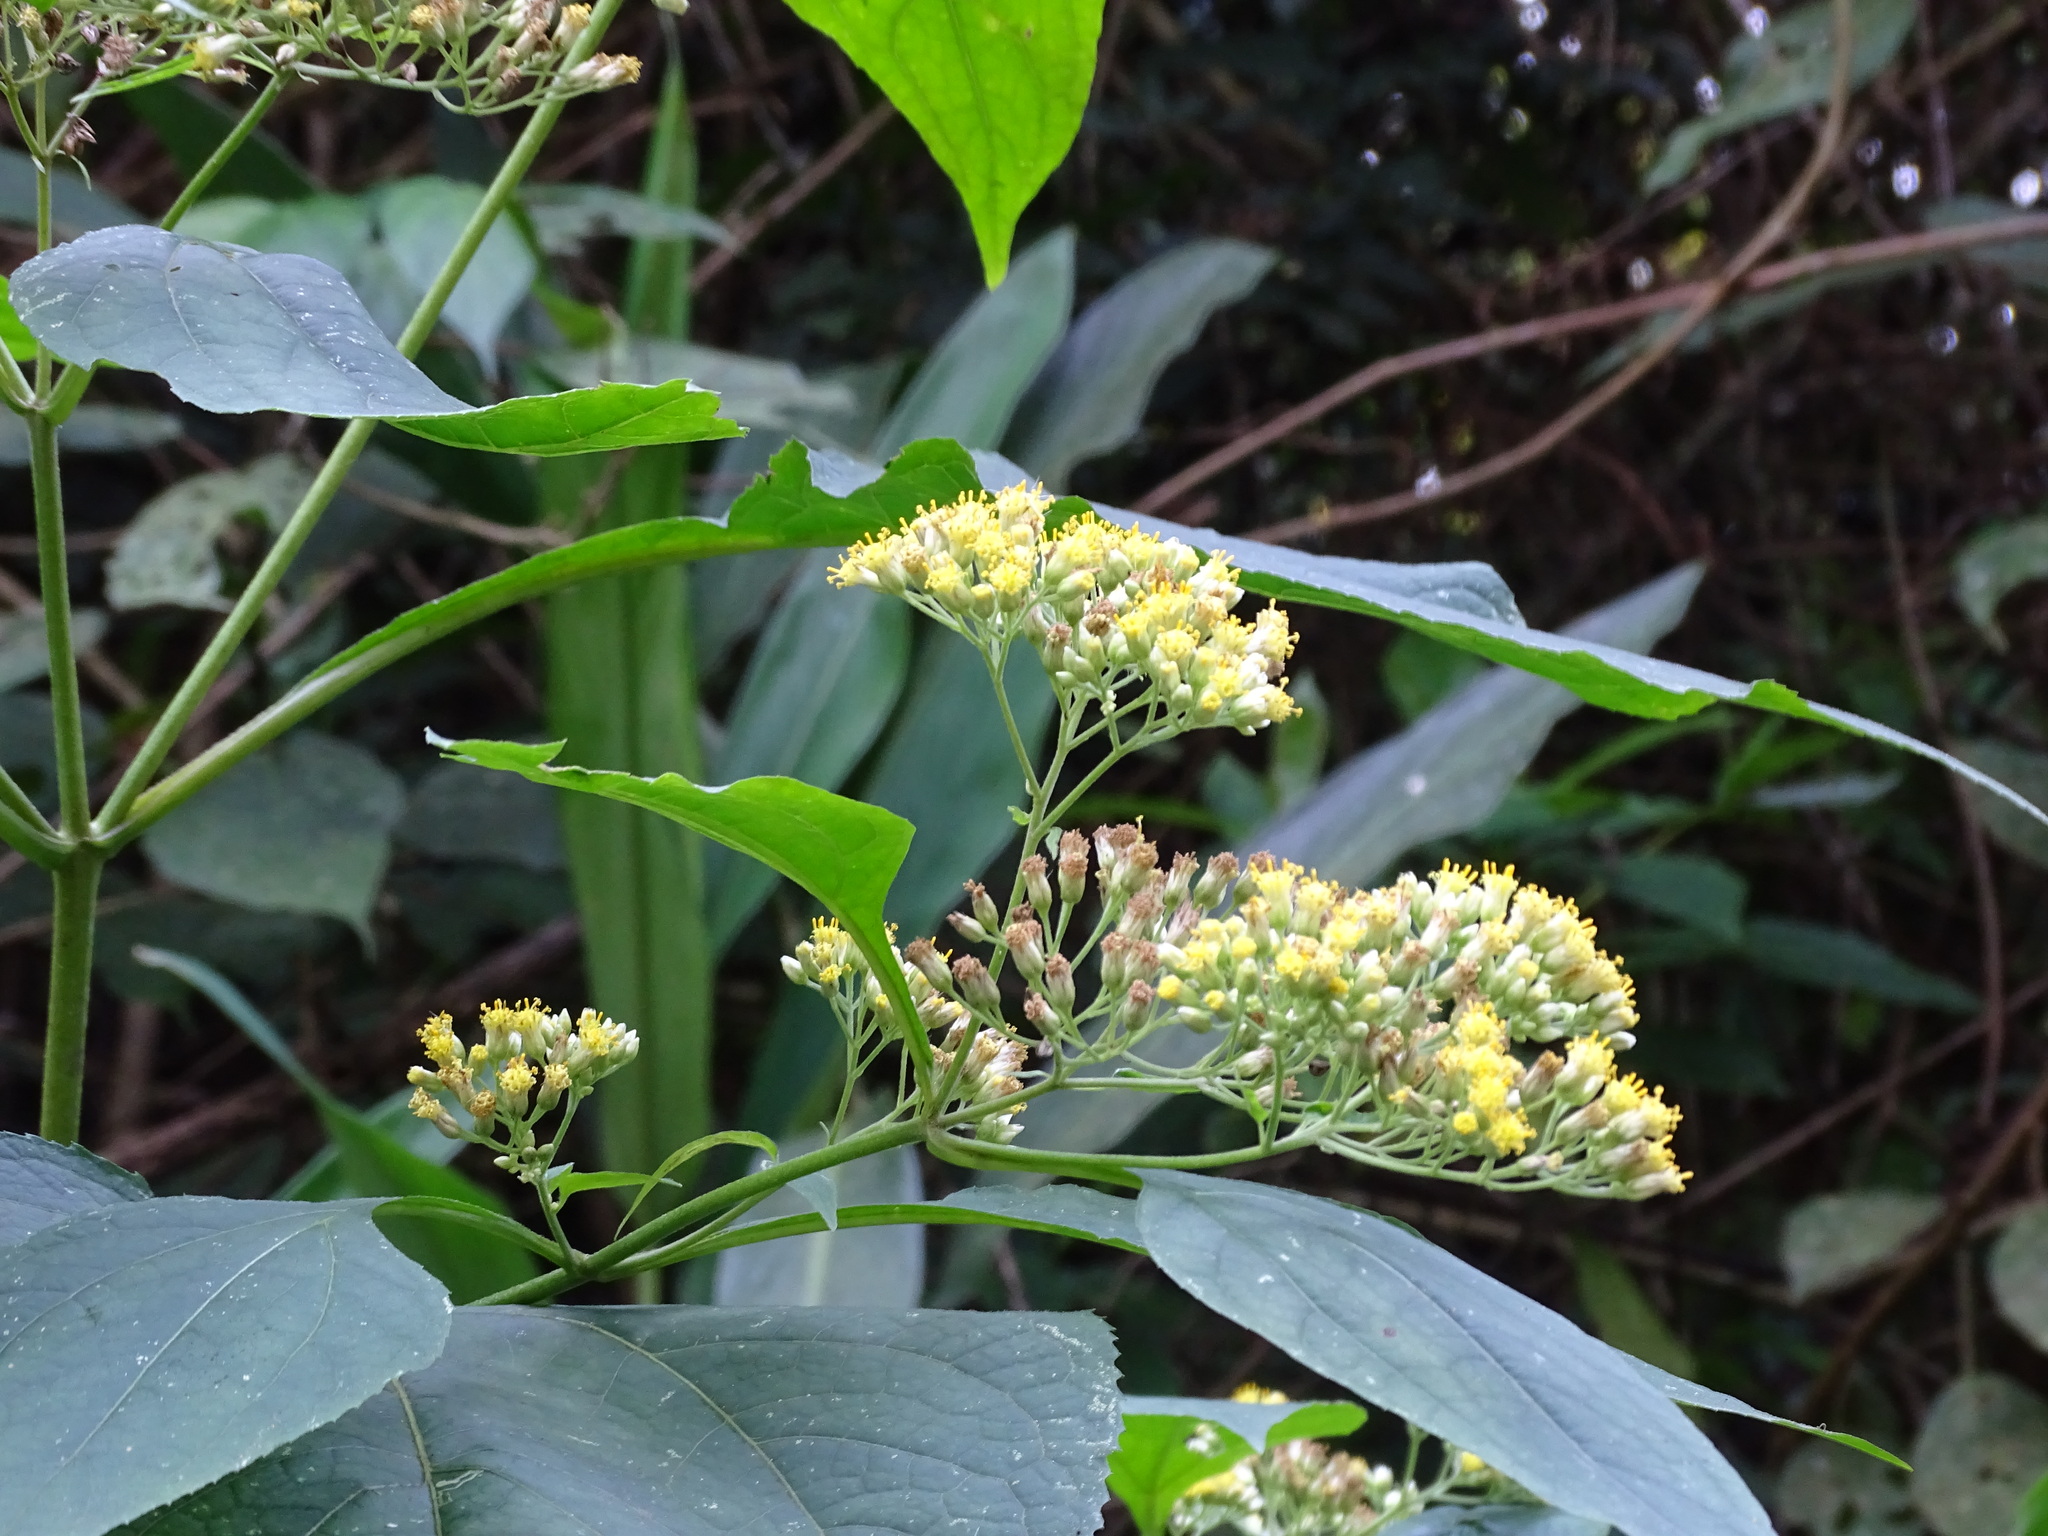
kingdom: Plantae
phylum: Tracheophyta
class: Magnoliopsida
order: Asterales
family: Asteraceae
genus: Schistocarpha
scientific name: Schistocarpha eupatorioides
